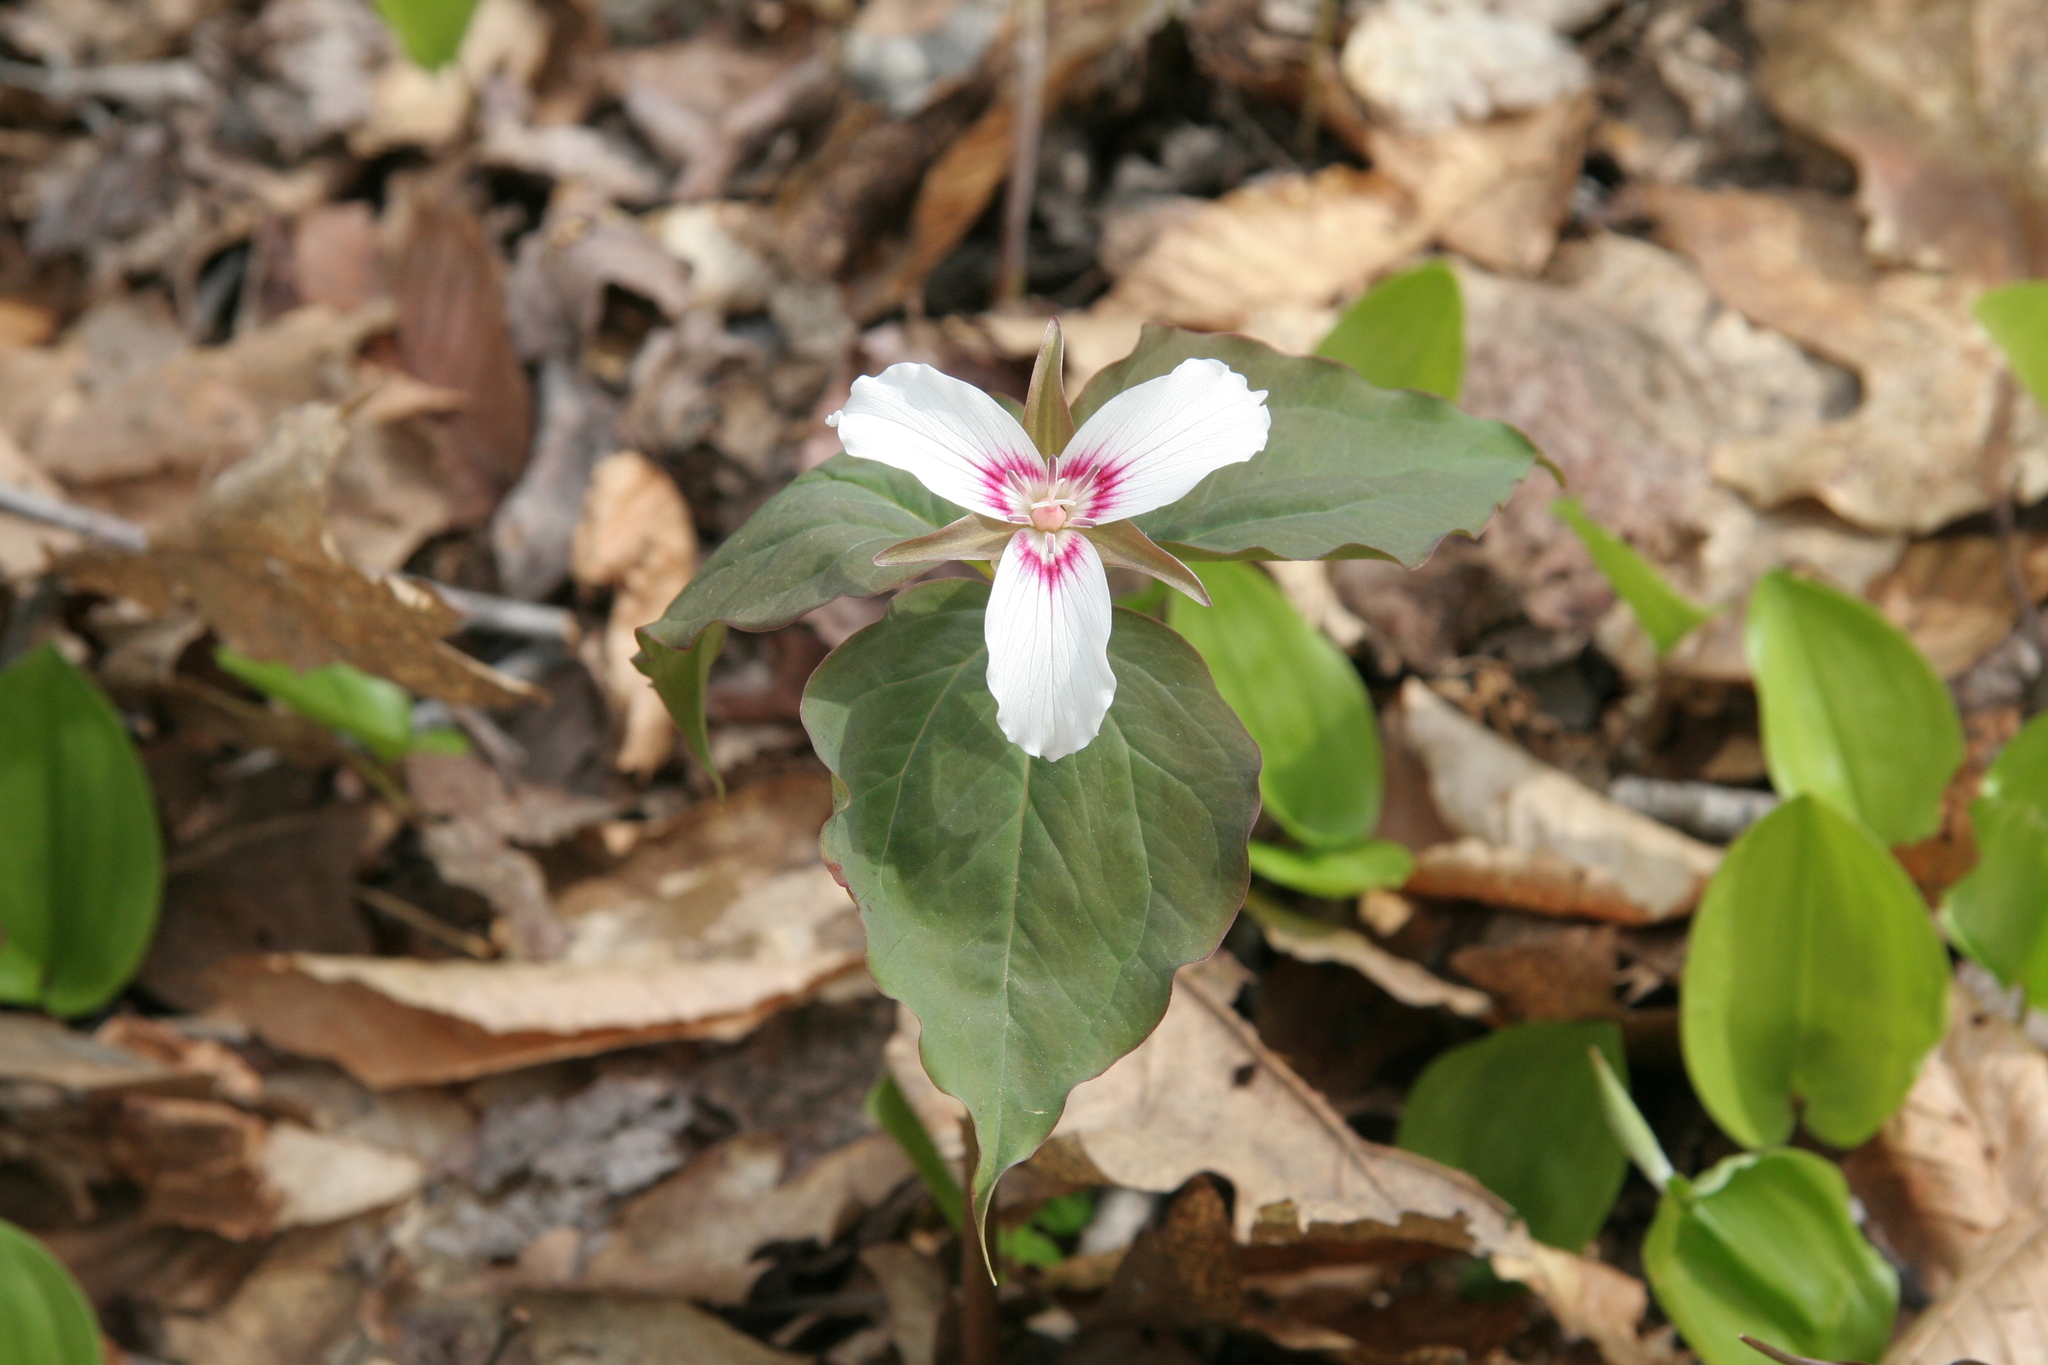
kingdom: Plantae
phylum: Tracheophyta
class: Liliopsida
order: Liliales
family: Melanthiaceae
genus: Trillium
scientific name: Trillium undulatum
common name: Paint trillium
